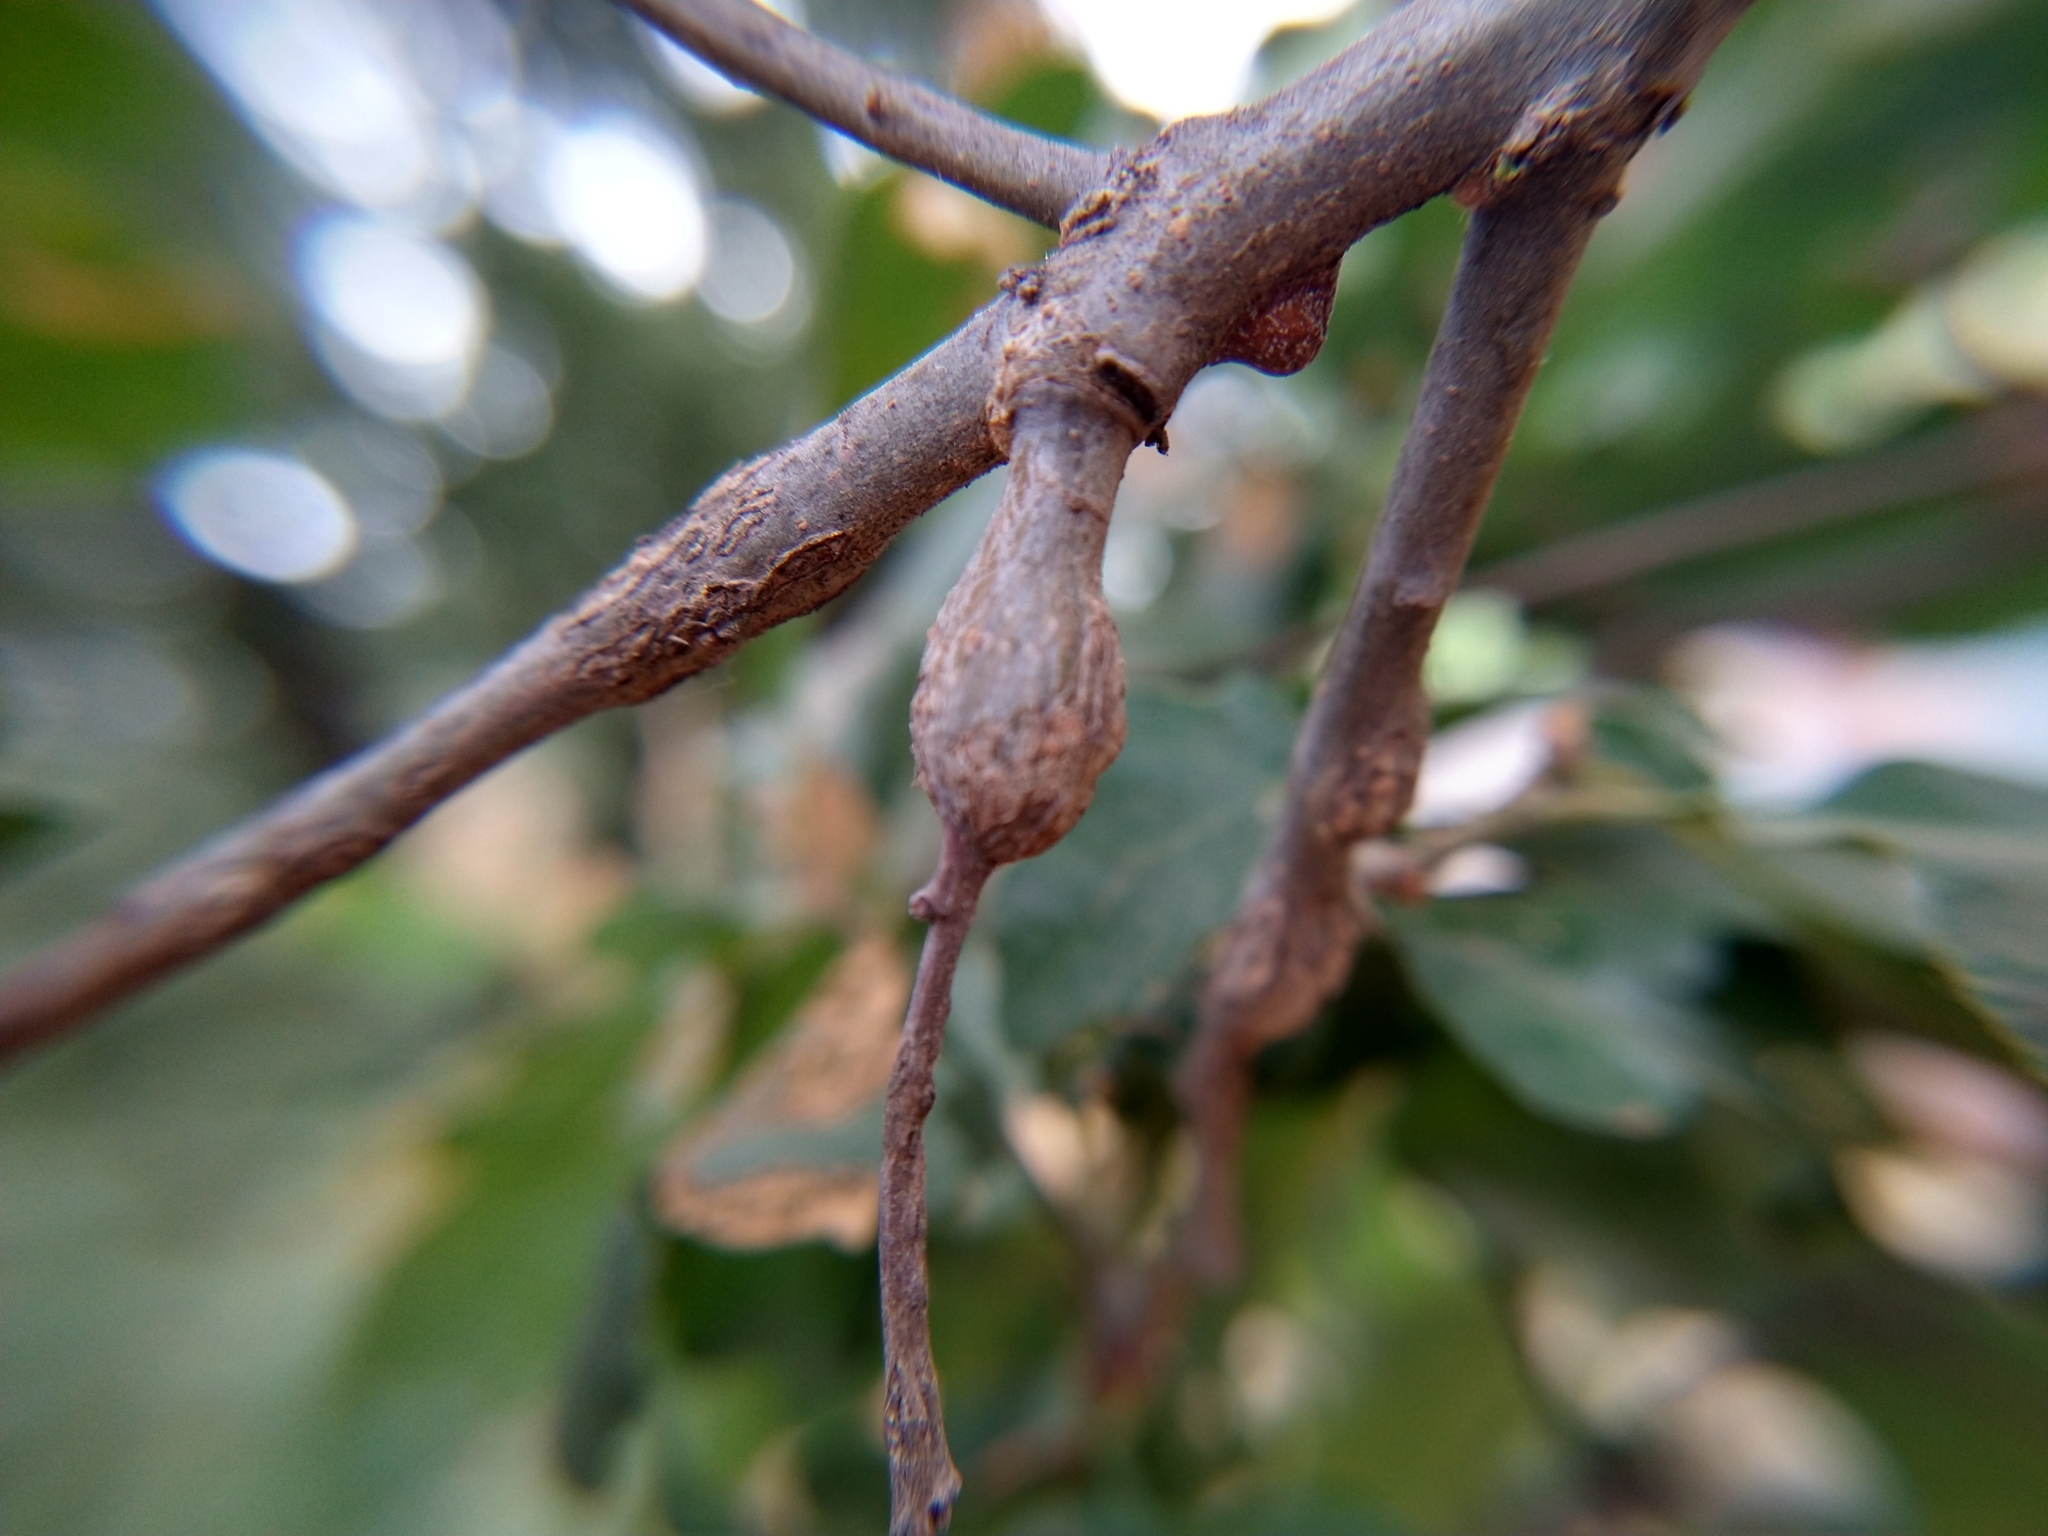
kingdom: Animalia
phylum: Arthropoda
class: Insecta
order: Hymenoptera
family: Cynipidae
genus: Andricus
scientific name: Andricus
